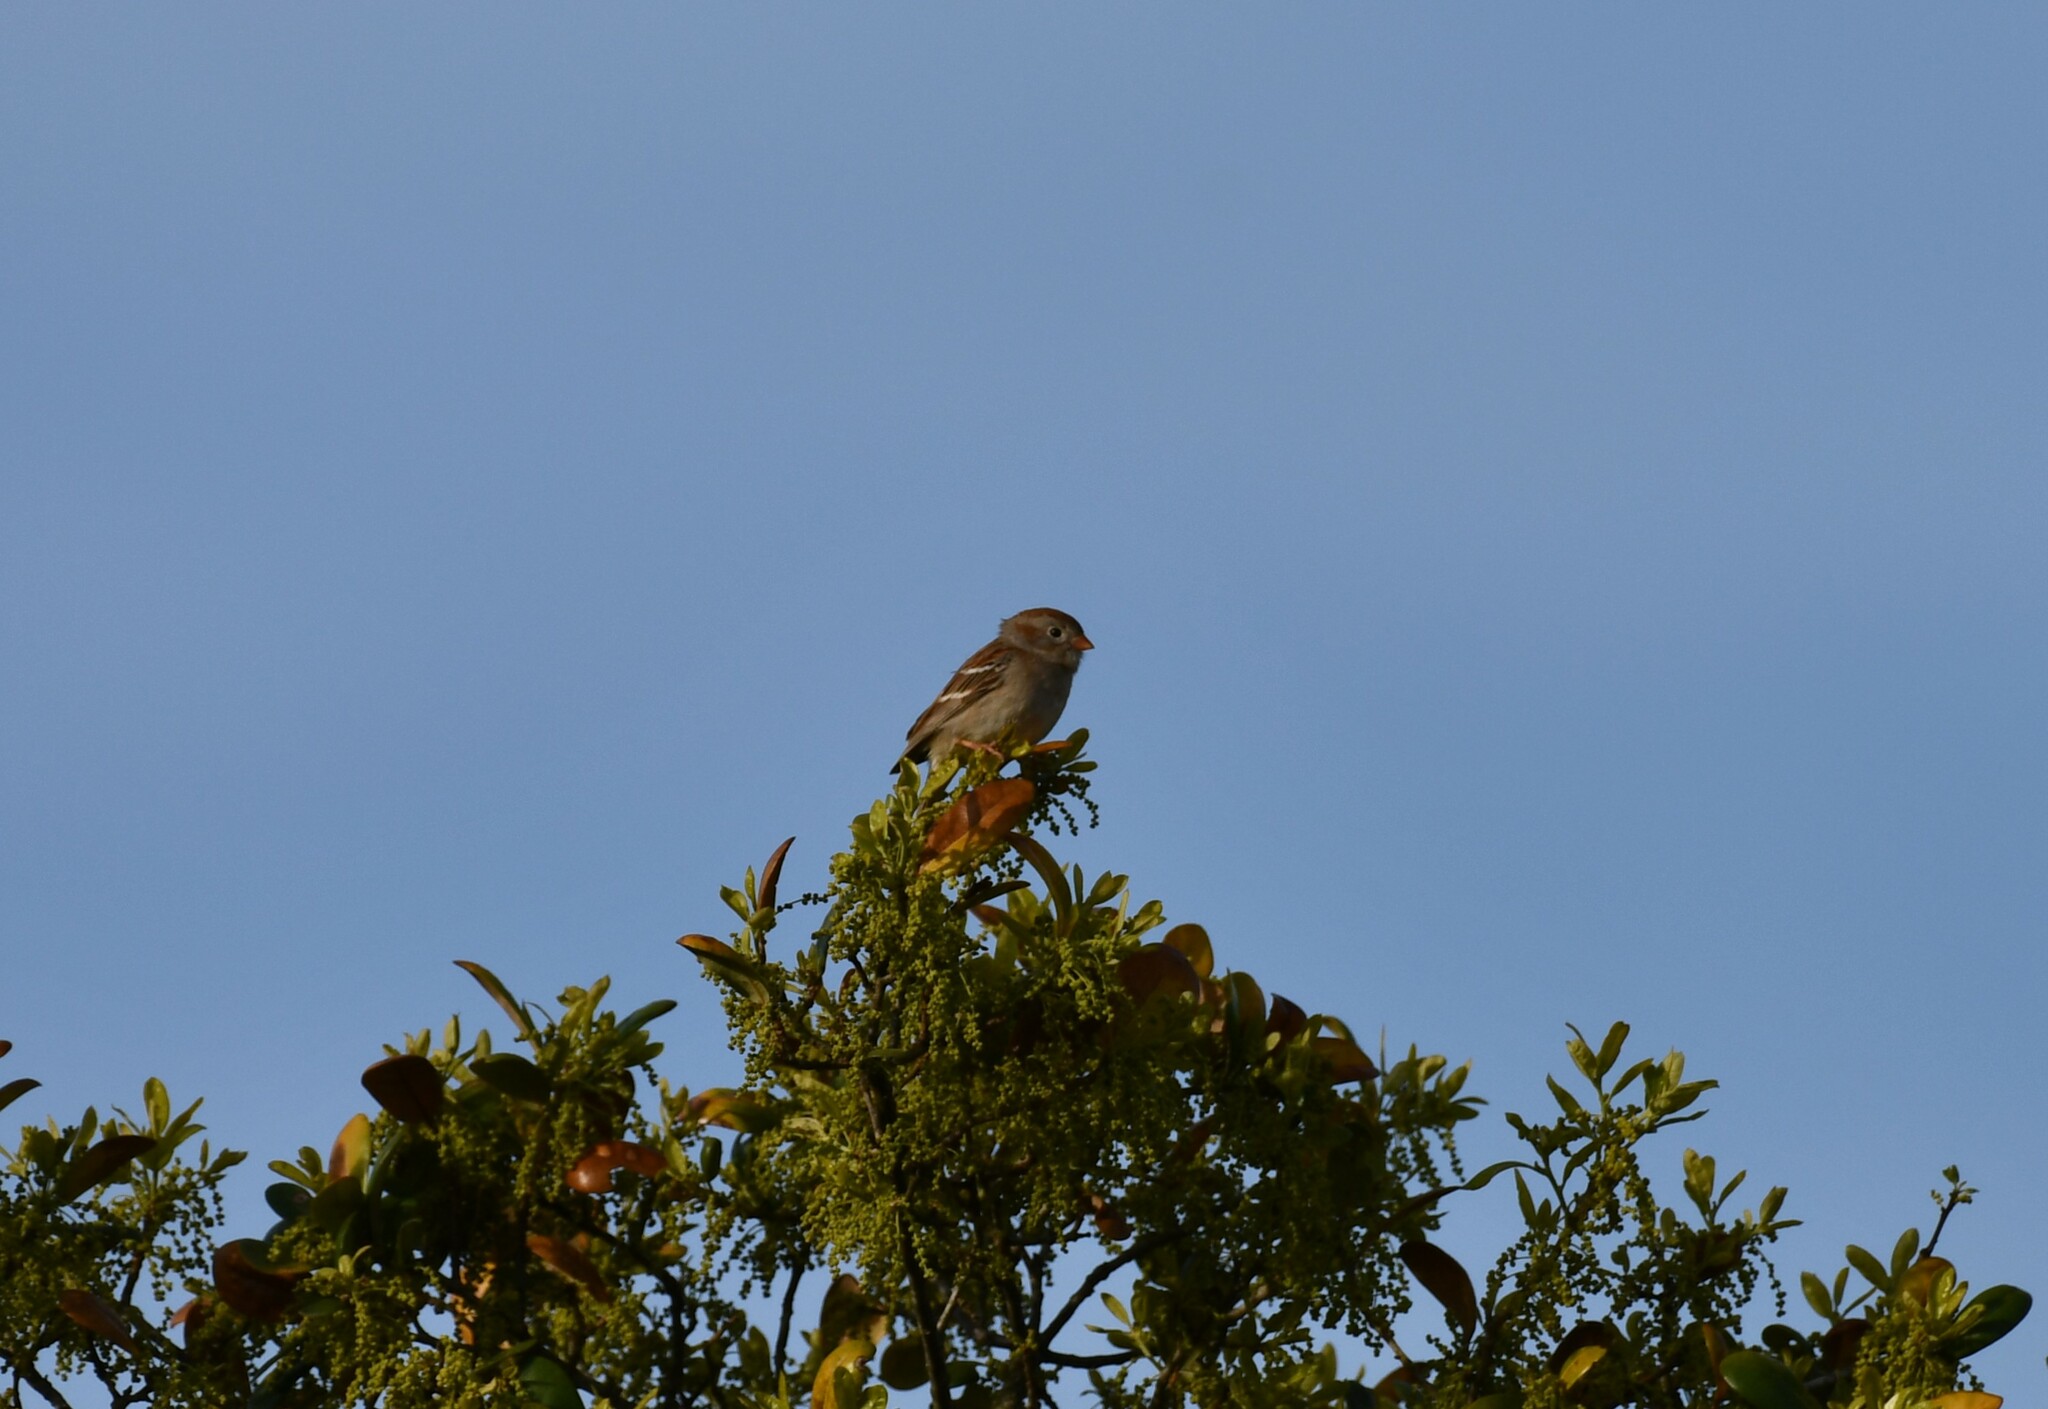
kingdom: Animalia
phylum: Chordata
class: Aves
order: Passeriformes
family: Passerellidae
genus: Spizella
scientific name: Spizella pusilla
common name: Field sparrow
